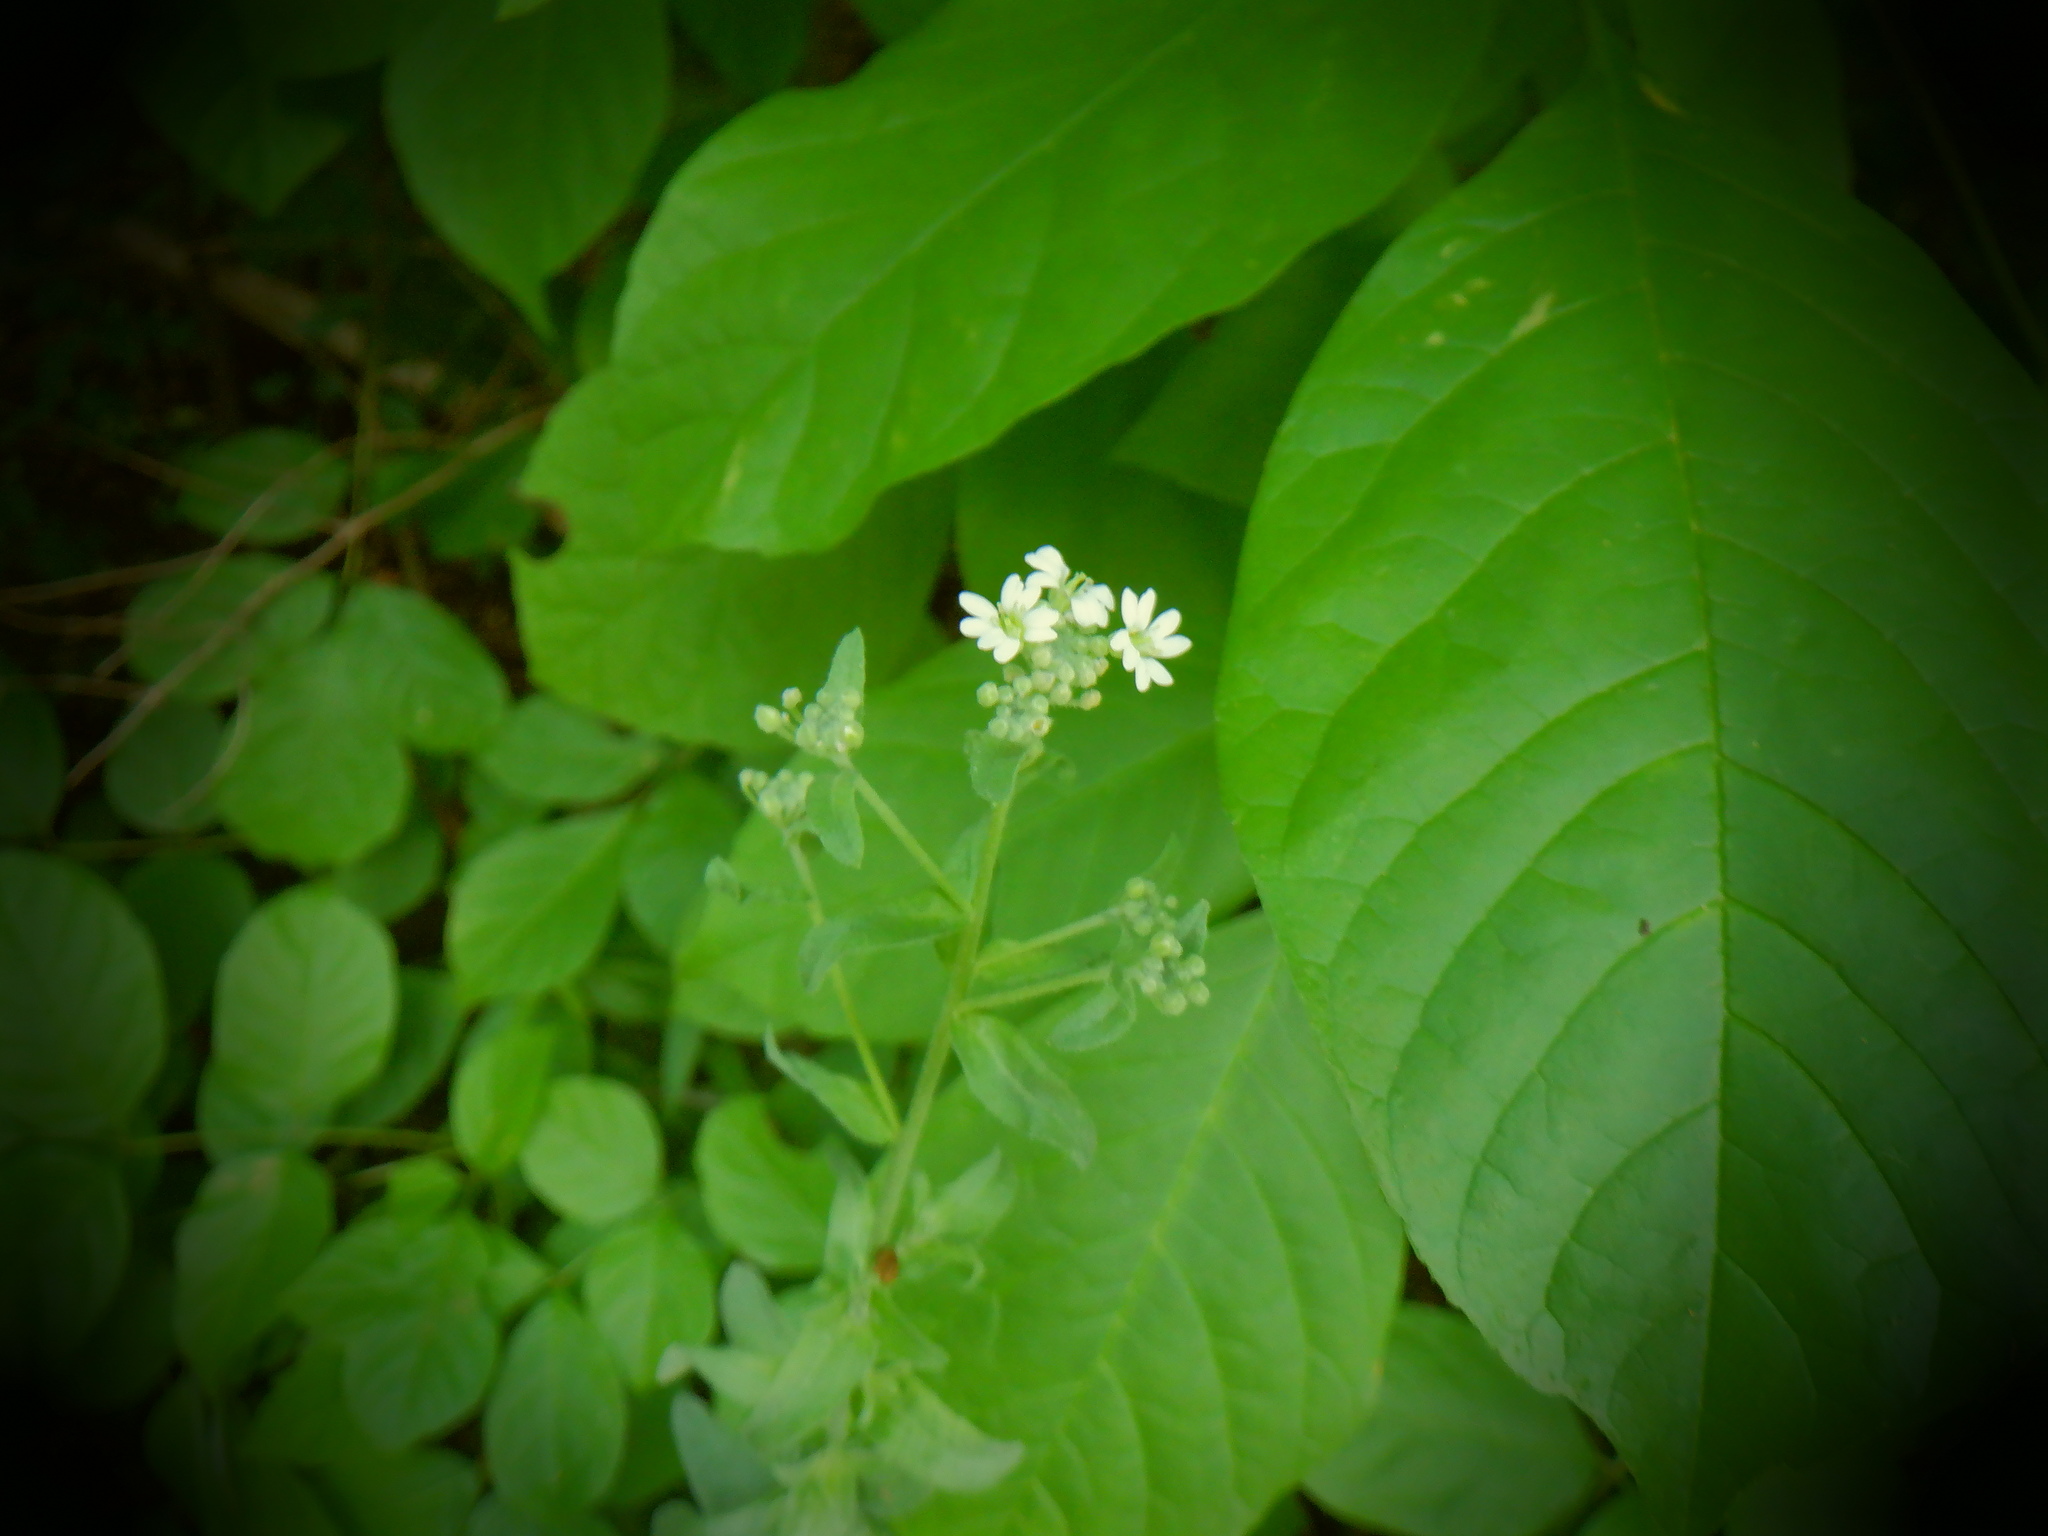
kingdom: Plantae
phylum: Tracheophyta
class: Magnoliopsida
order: Brassicales
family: Brassicaceae
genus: Berteroa
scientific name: Berteroa incana
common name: Hoary alison
